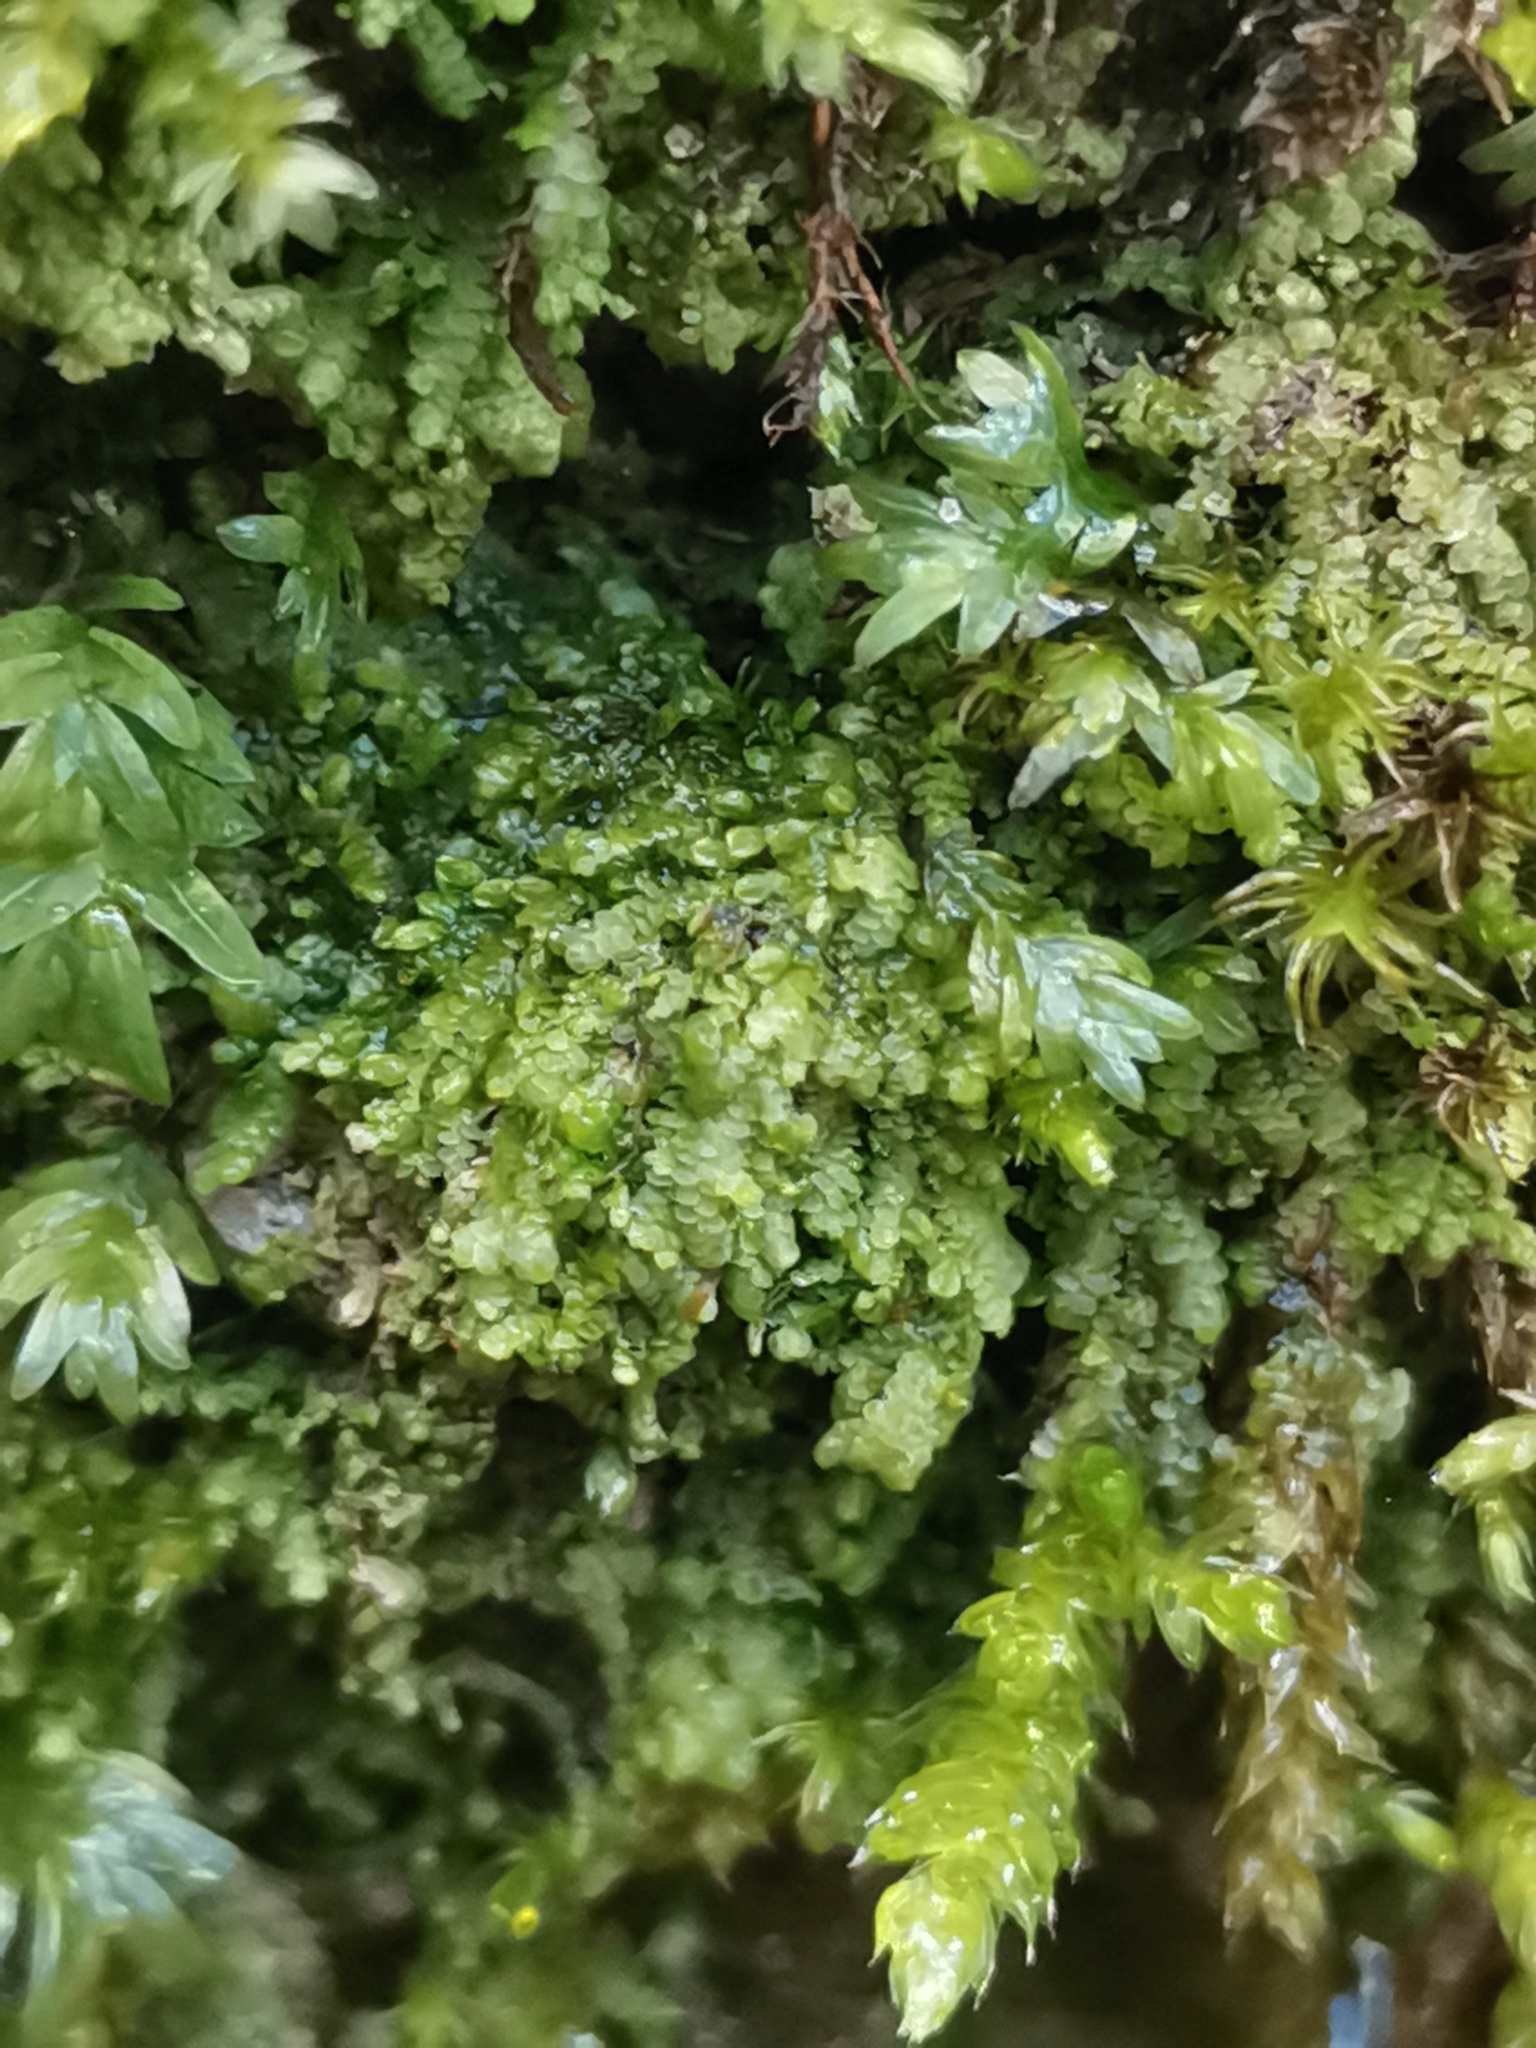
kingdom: Plantae
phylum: Marchantiophyta
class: Jungermanniopsida
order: Porellales
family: Lejeuneaceae
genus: Lejeunea
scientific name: Lejeunea cavifolia
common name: Least pouncewort
